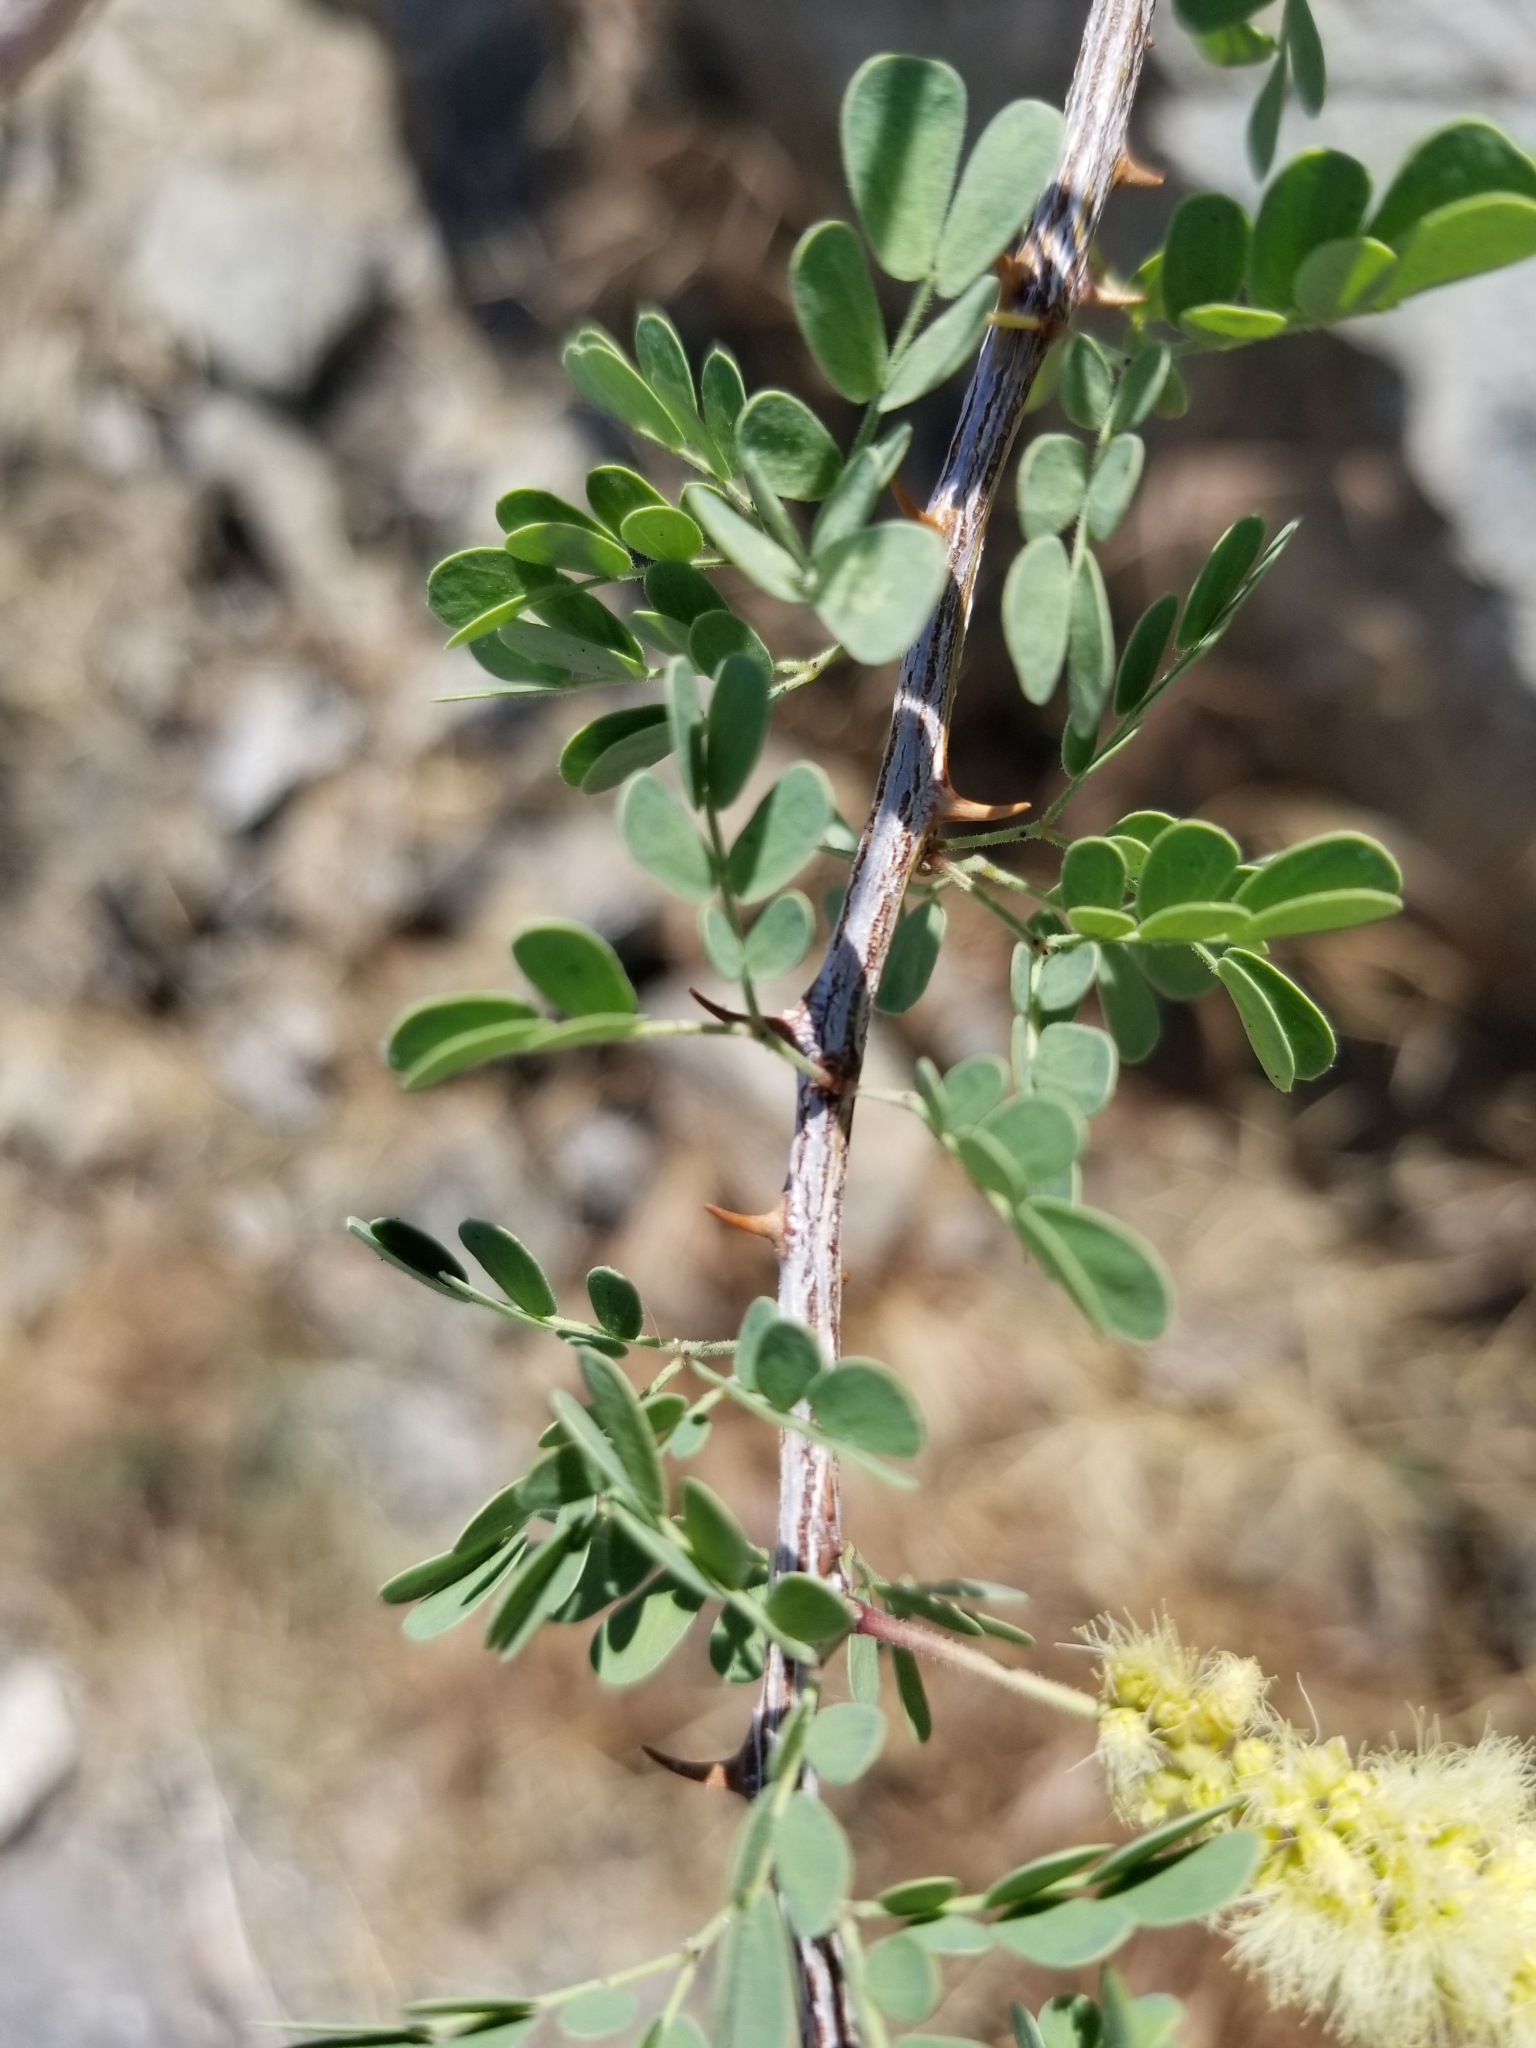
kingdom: Plantae
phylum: Tracheophyta
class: Magnoliopsida
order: Fabales
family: Fabaceae
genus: Senegalia
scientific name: Senegalia greggii
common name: Texas-mimosa
